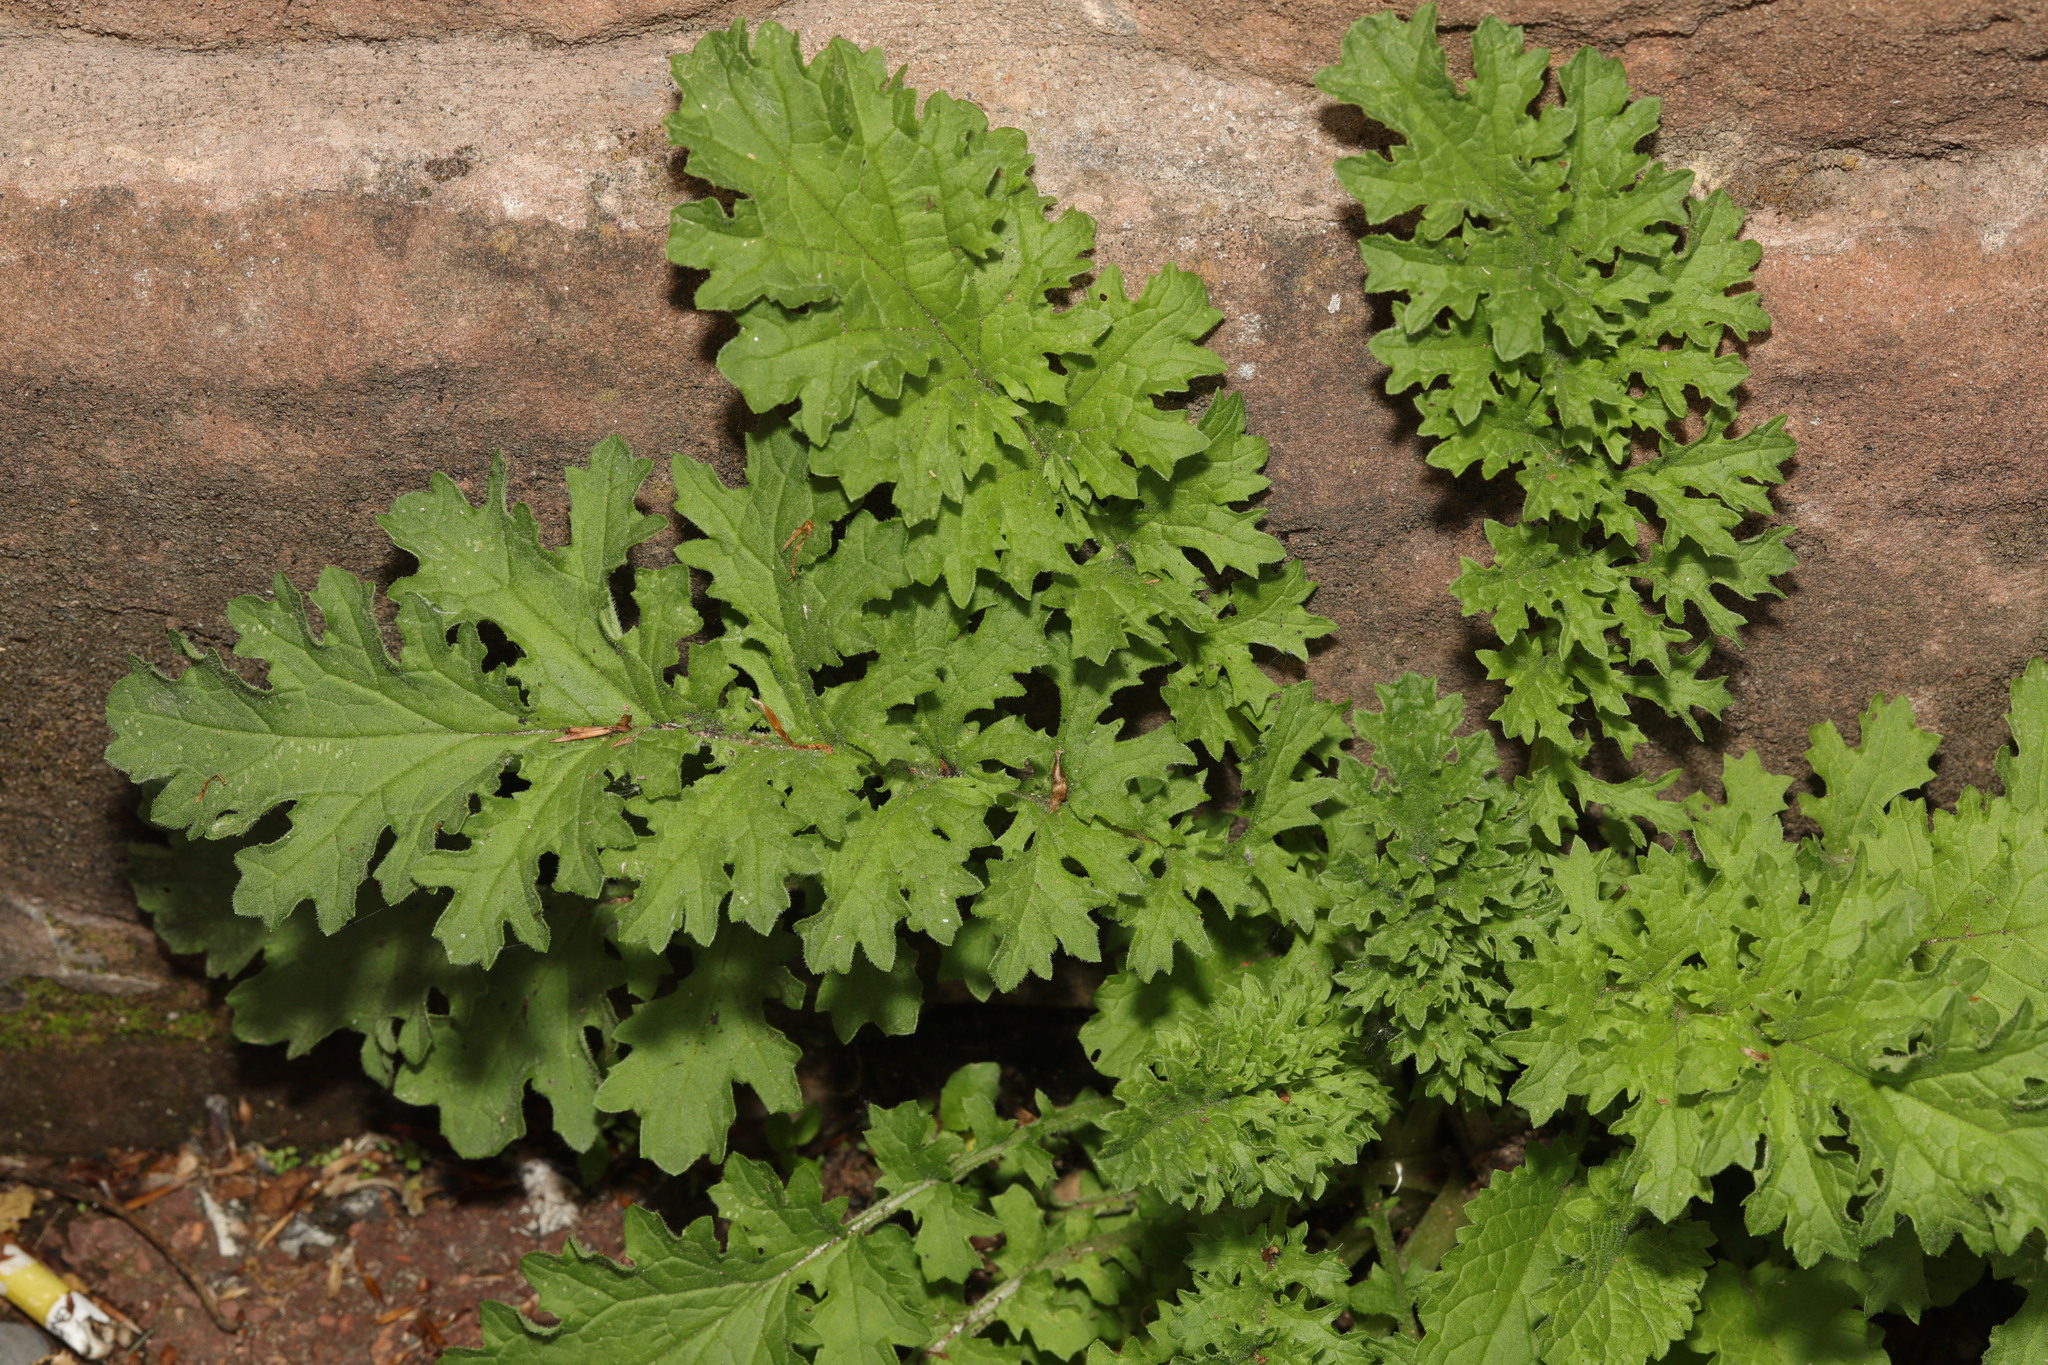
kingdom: Plantae
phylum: Tracheophyta
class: Magnoliopsida
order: Asterales
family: Asteraceae
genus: Jacobaea
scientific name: Jacobaea vulgaris
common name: Stinking willie
